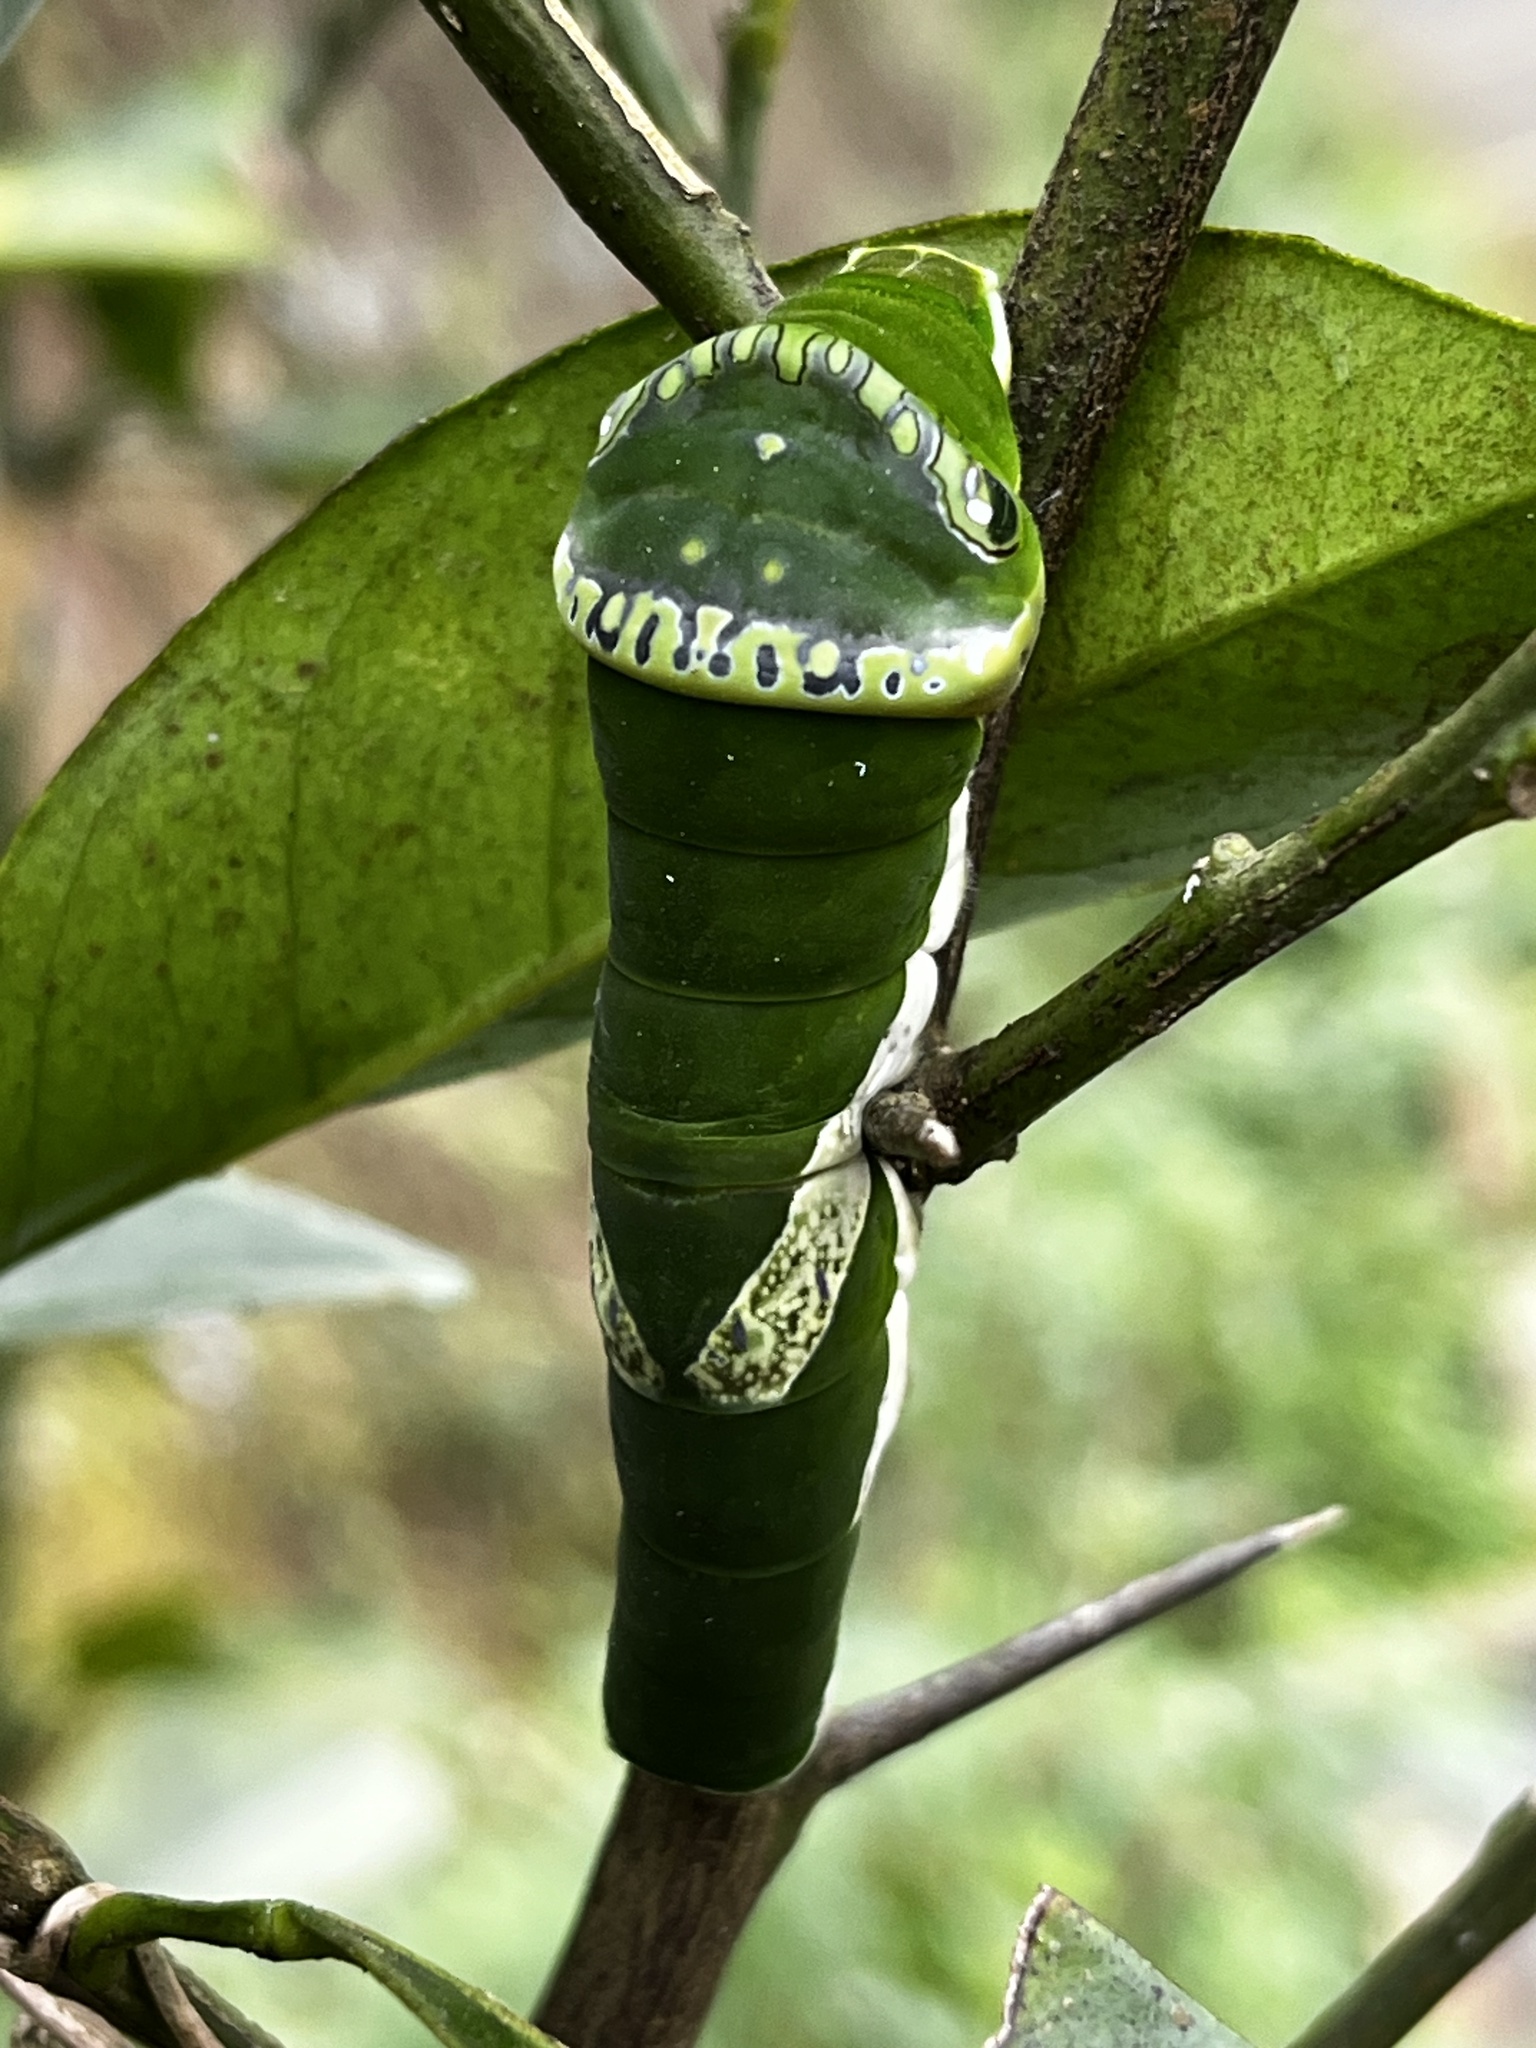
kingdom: Animalia
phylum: Arthropoda
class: Insecta
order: Lepidoptera
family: Papilionidae
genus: Papilio
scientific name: Papilio memnon
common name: Great mormon
